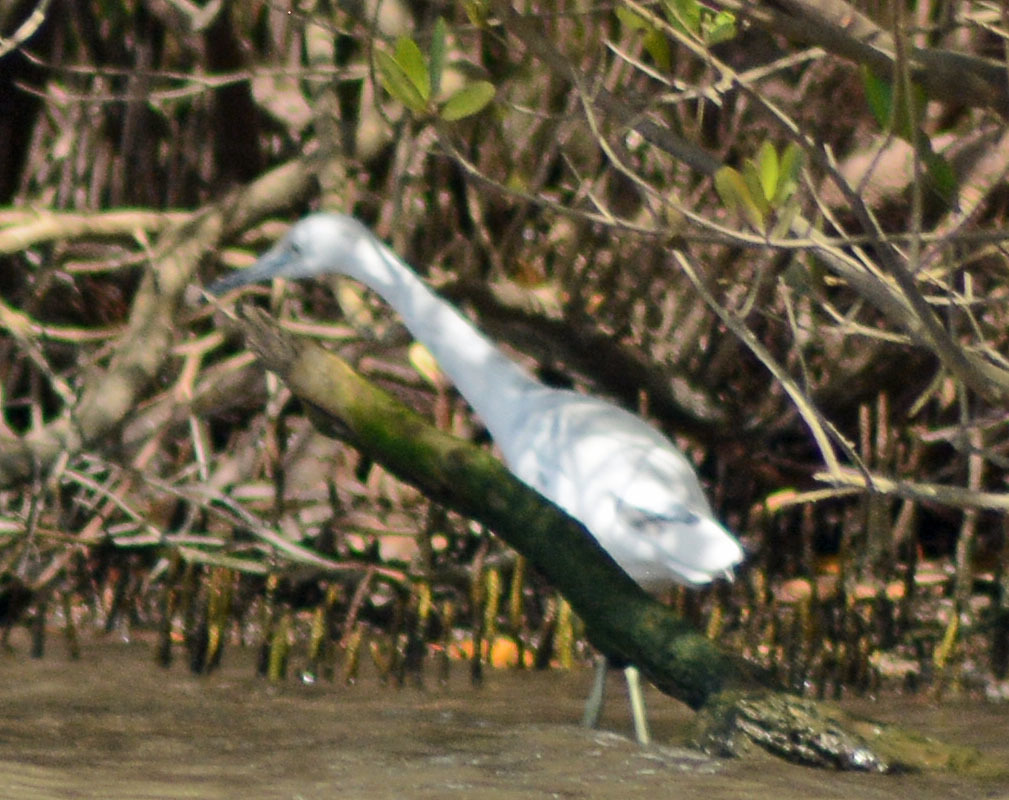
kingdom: Animalia
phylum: Chordata
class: Aves
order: Pelecaniformes
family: Ardeidae
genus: Egretta
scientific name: Egretta caerulea
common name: Little blue heron
